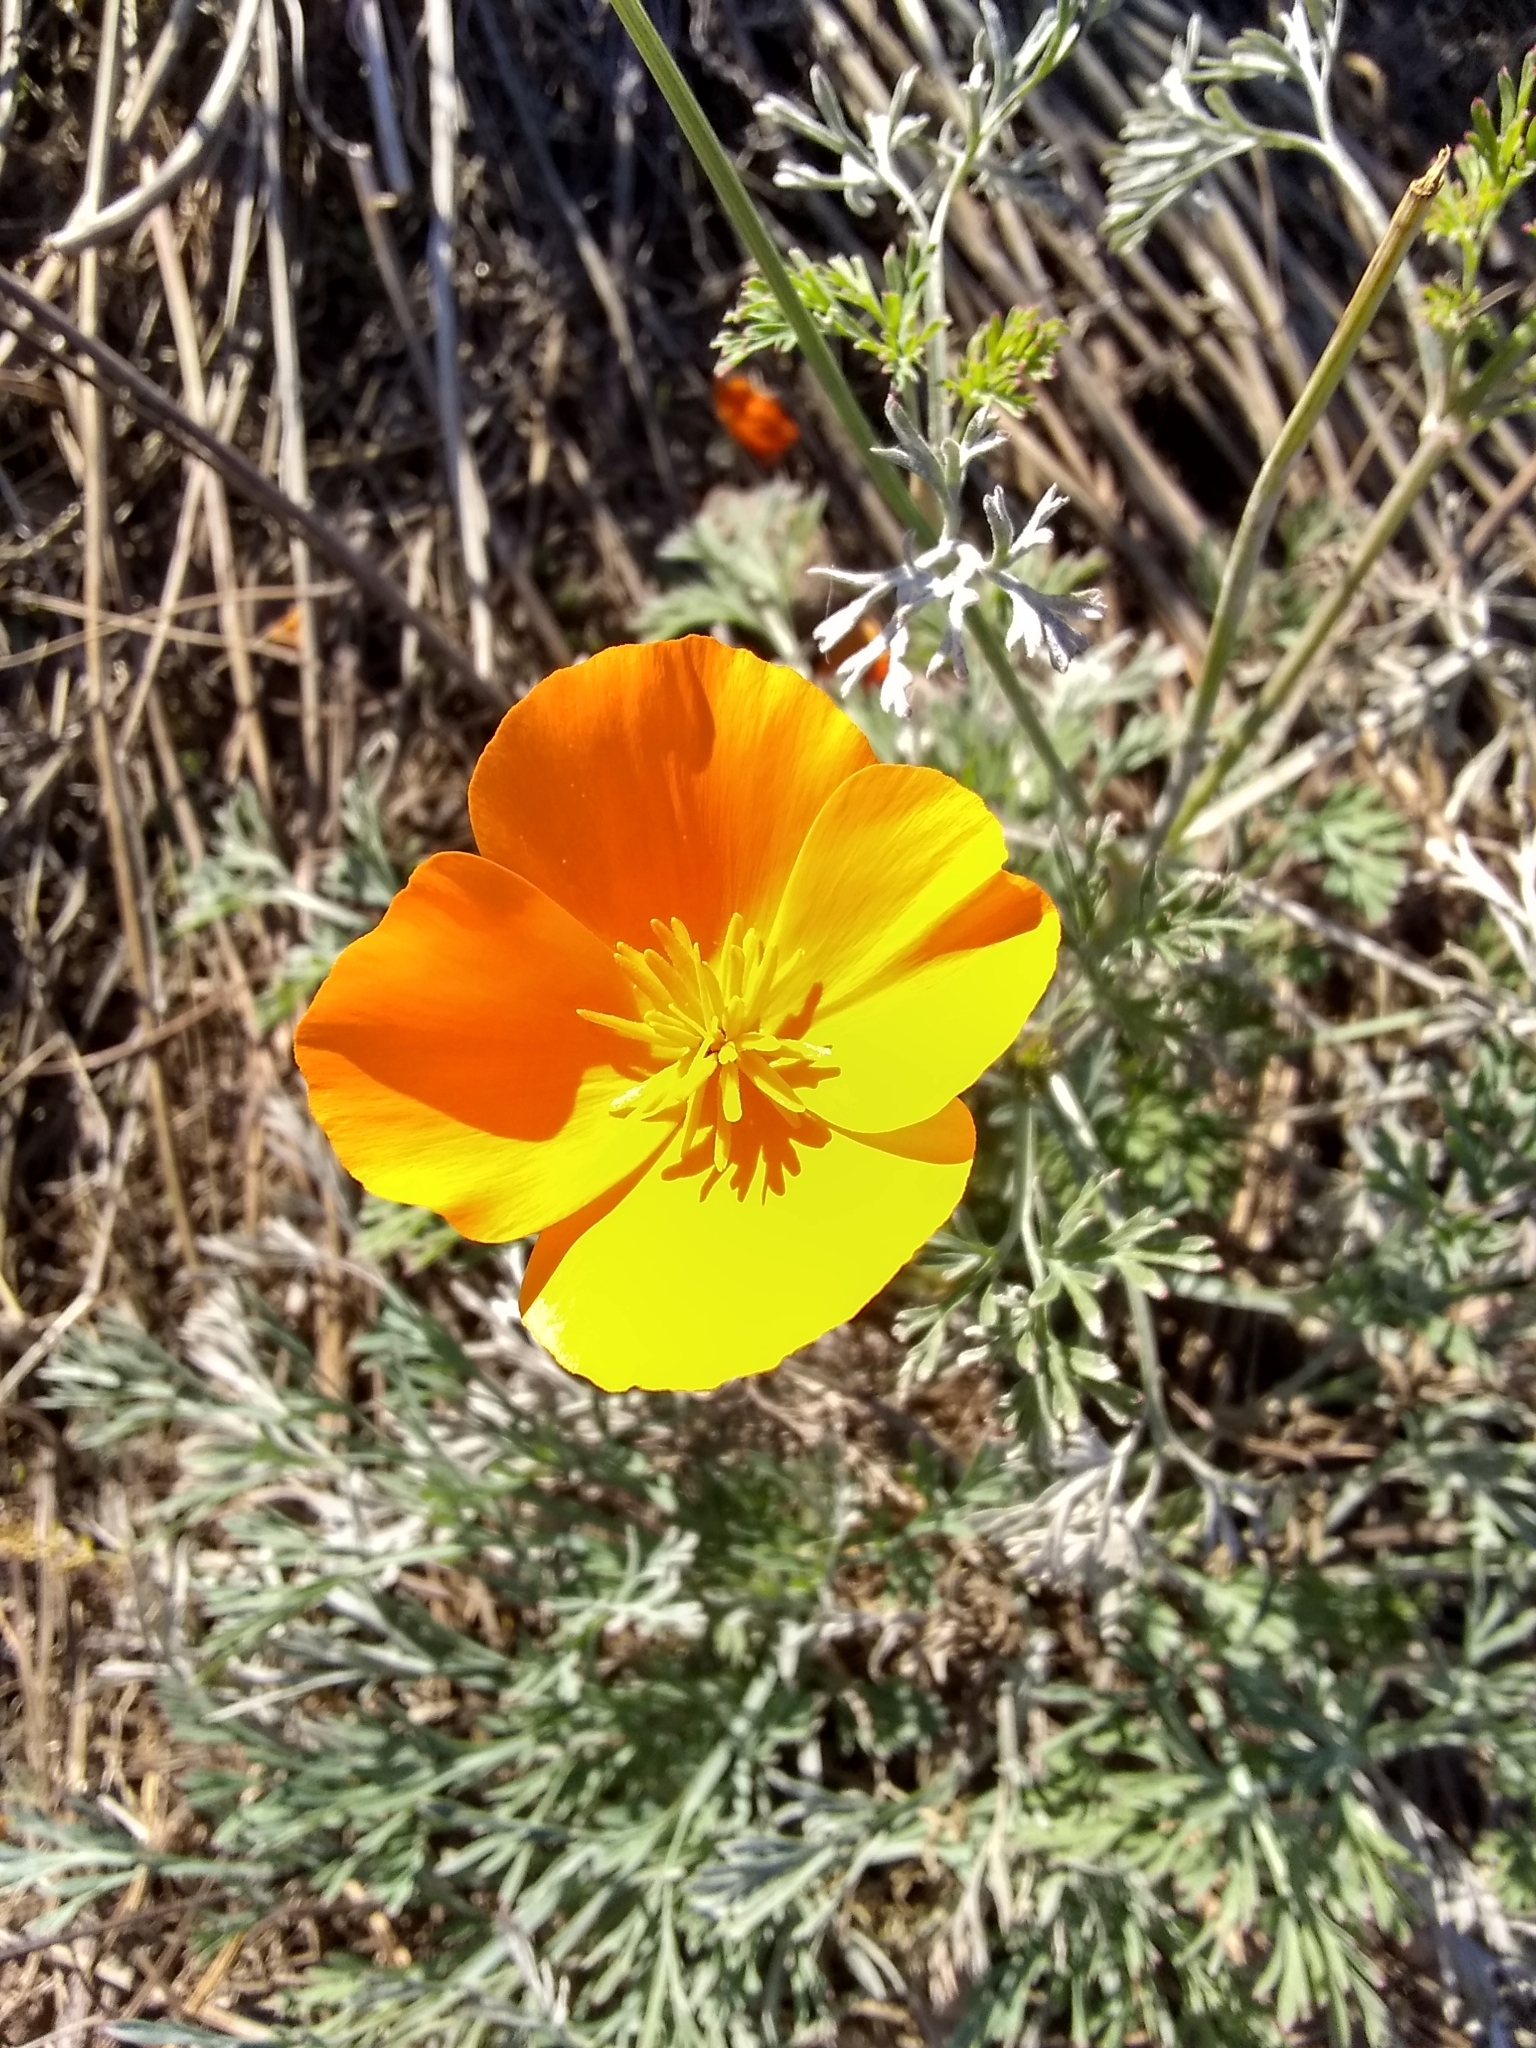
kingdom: Plantae
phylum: Tracheophyta
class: Magnoliopsida
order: Ranunculales
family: Papaveraceae
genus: Eschscholzia
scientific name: Eschscholzia californica
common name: California poppy
